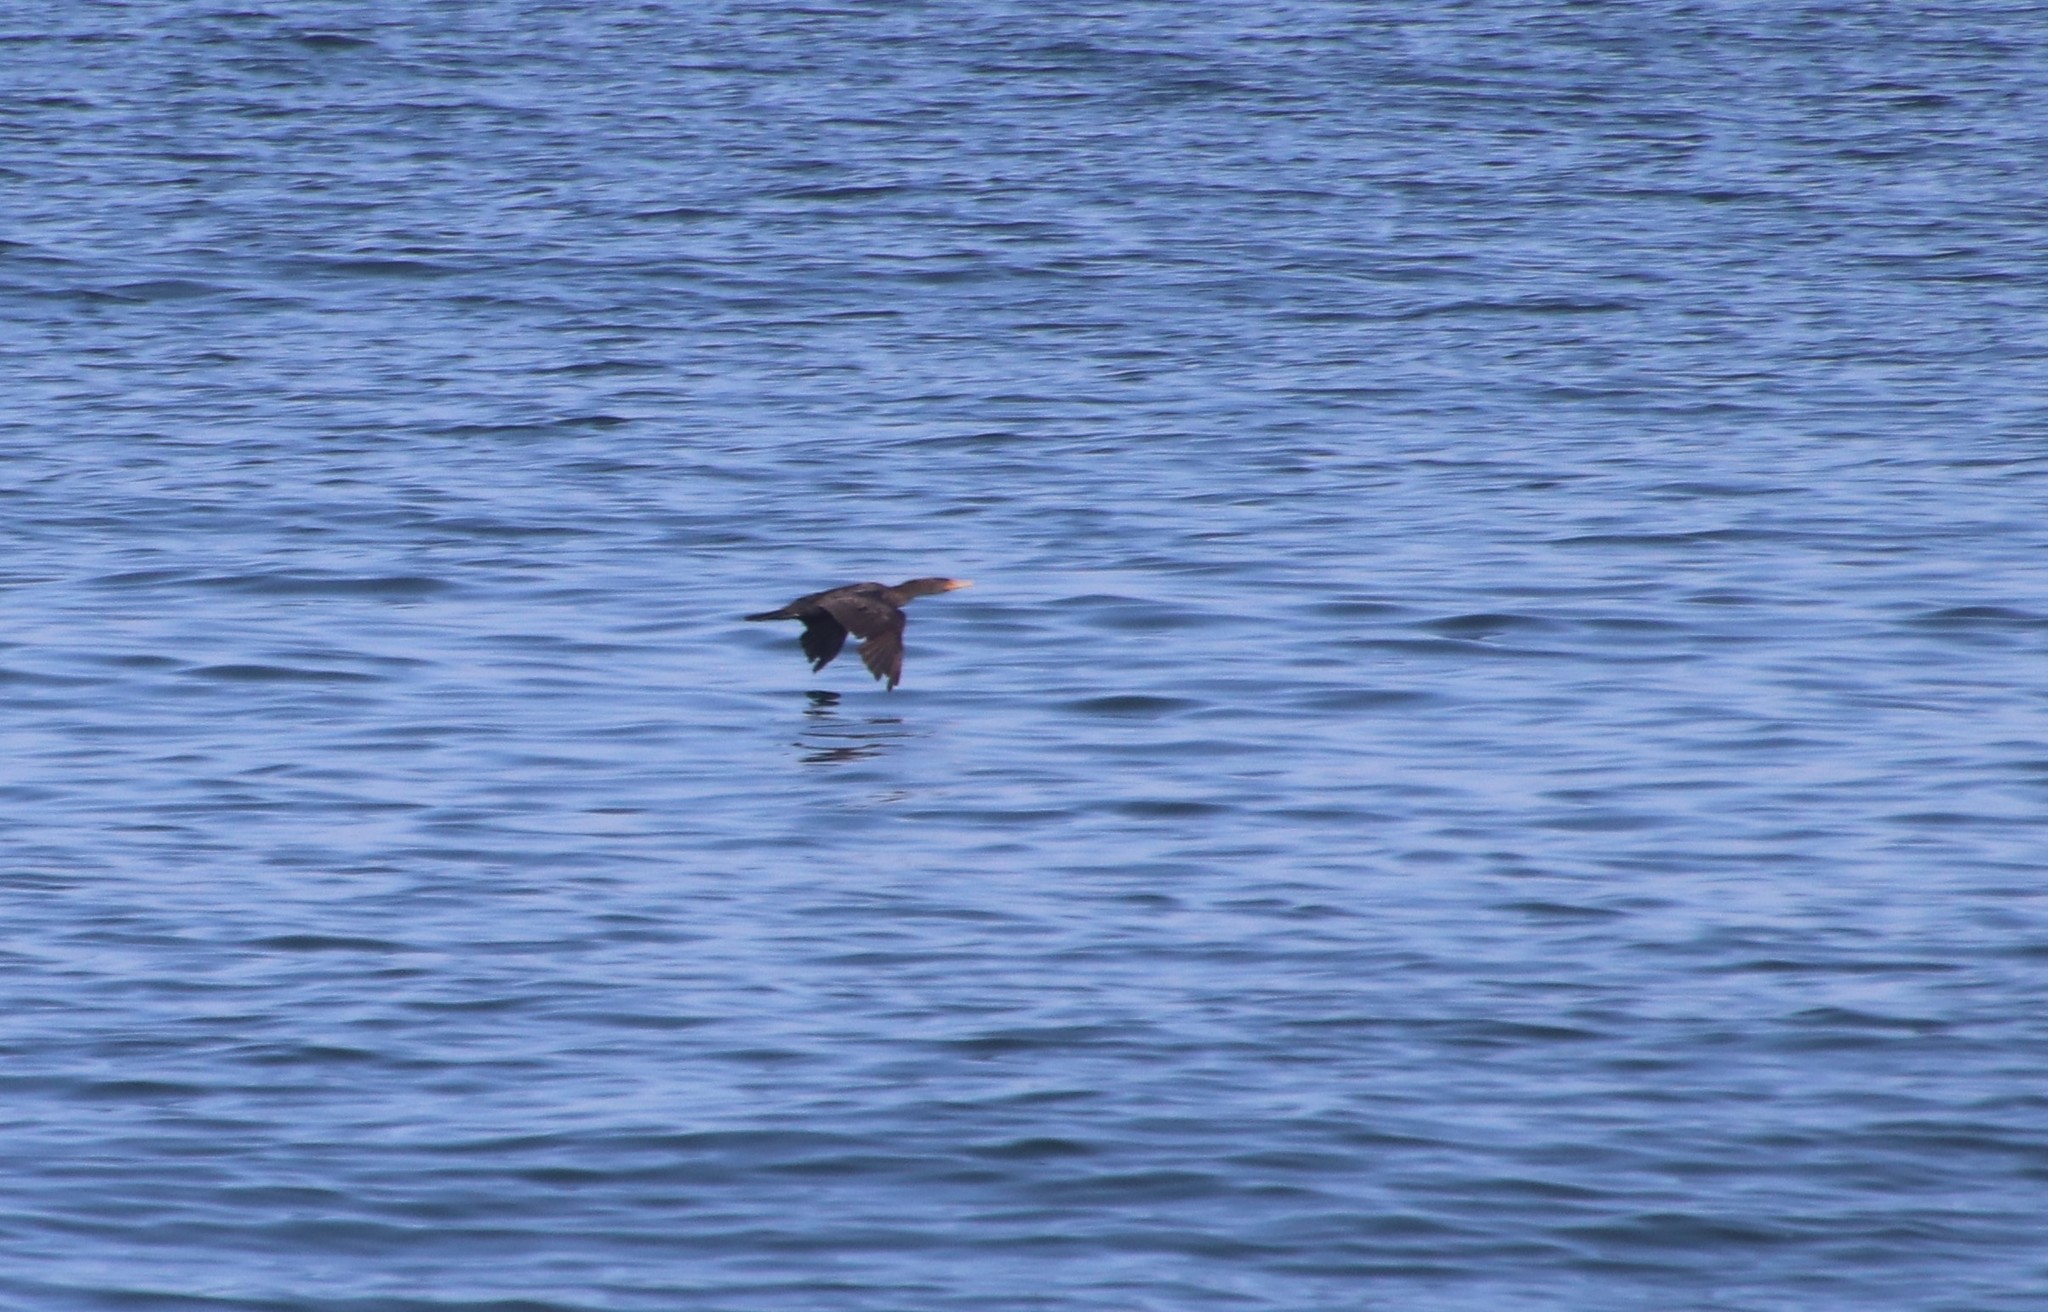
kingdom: Animalia
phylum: Chordata
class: Aves
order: Suliformes
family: Phalacrocoracidae
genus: Phalacrocorax
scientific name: Phalacrocorax auritus
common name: Double-crested cormorant
